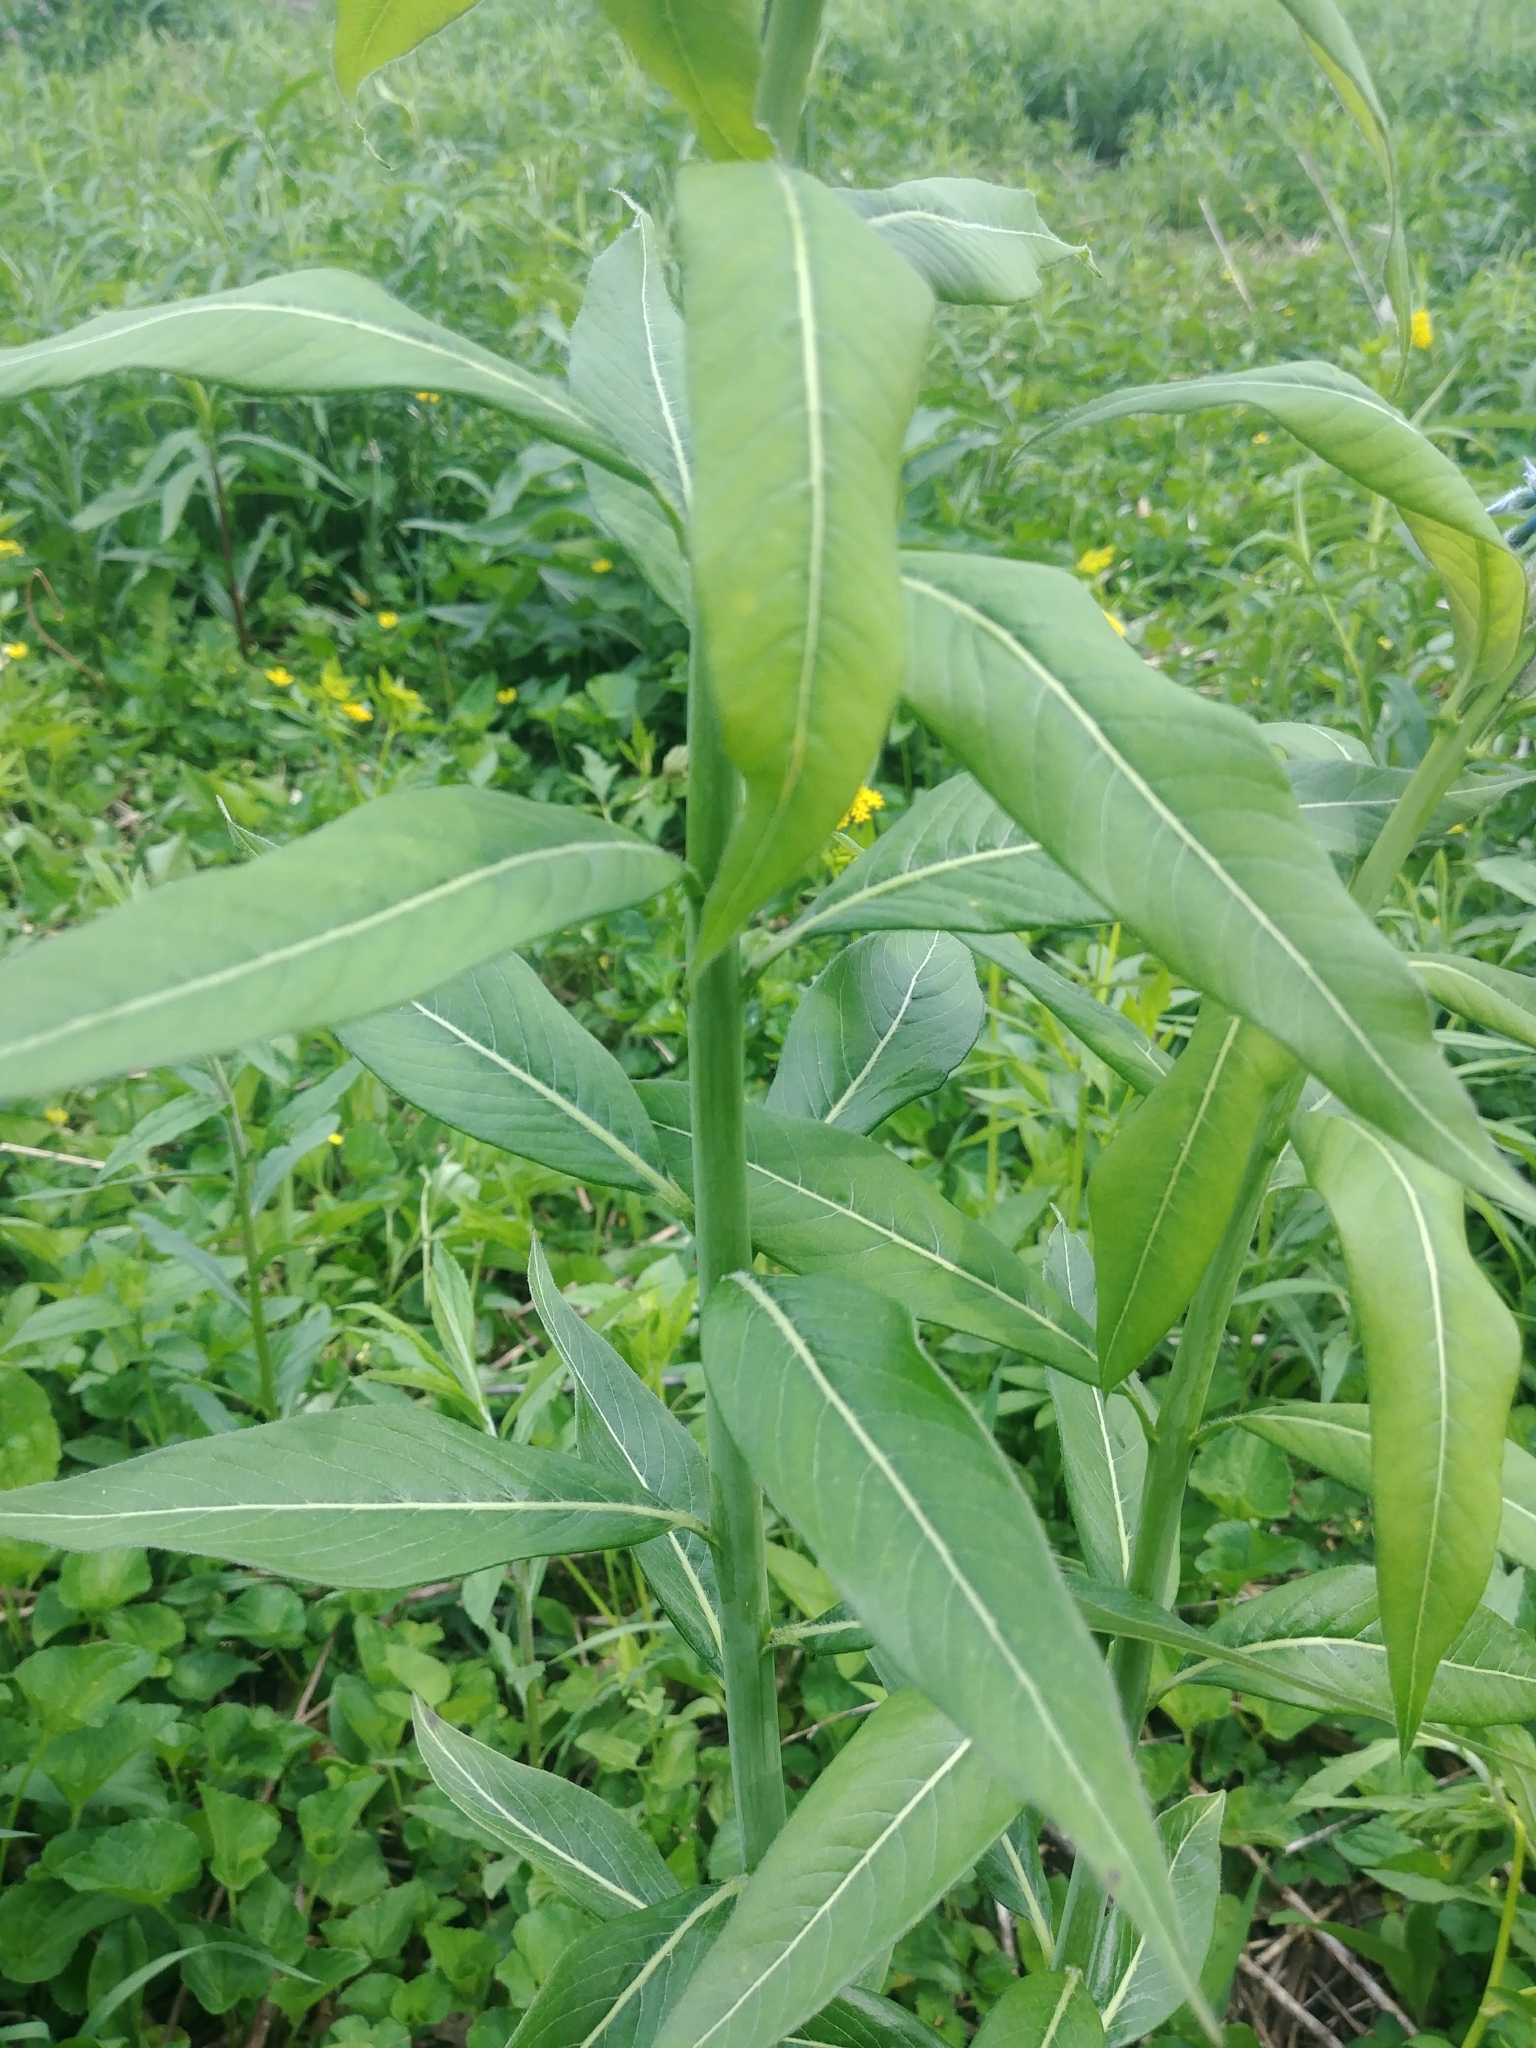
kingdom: Plantae
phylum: Tracheophyta
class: Magnoliopsida
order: Gentianales
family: Apocynaceae
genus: Amsonia
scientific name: Amsonia tabernaemontana
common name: Texas-star
